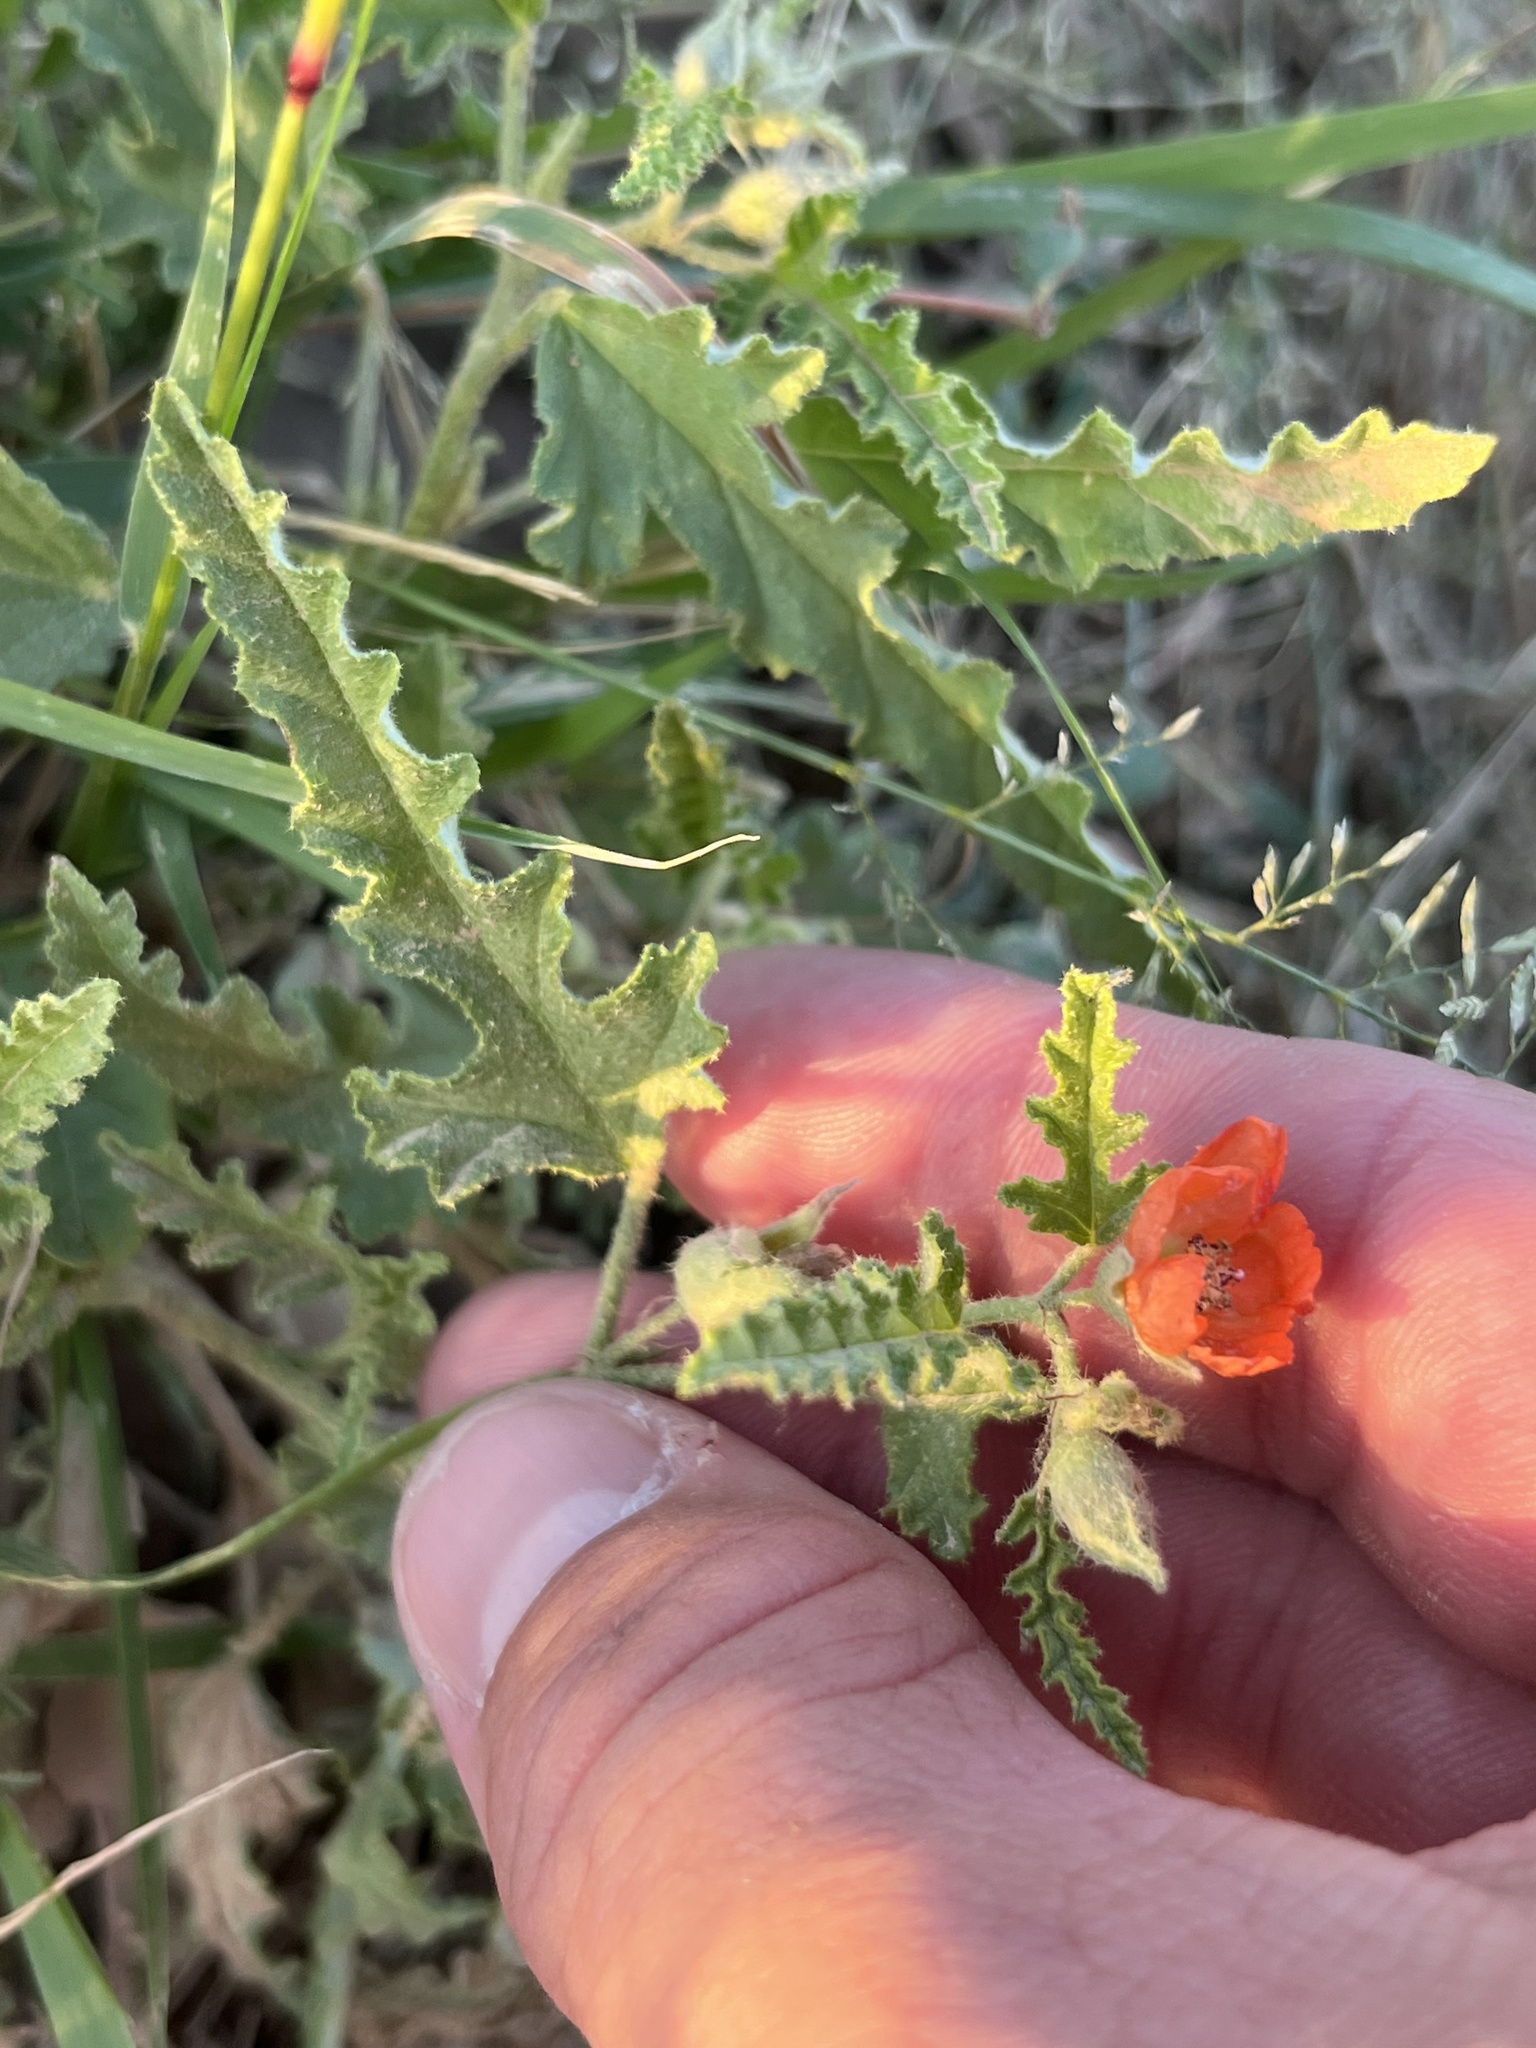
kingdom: Plantae
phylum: Tracheophyta
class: Magnoliopsida
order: Malvales
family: Malvaceae
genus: Sphaeralcea
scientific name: Sphaeralcea hastulata
